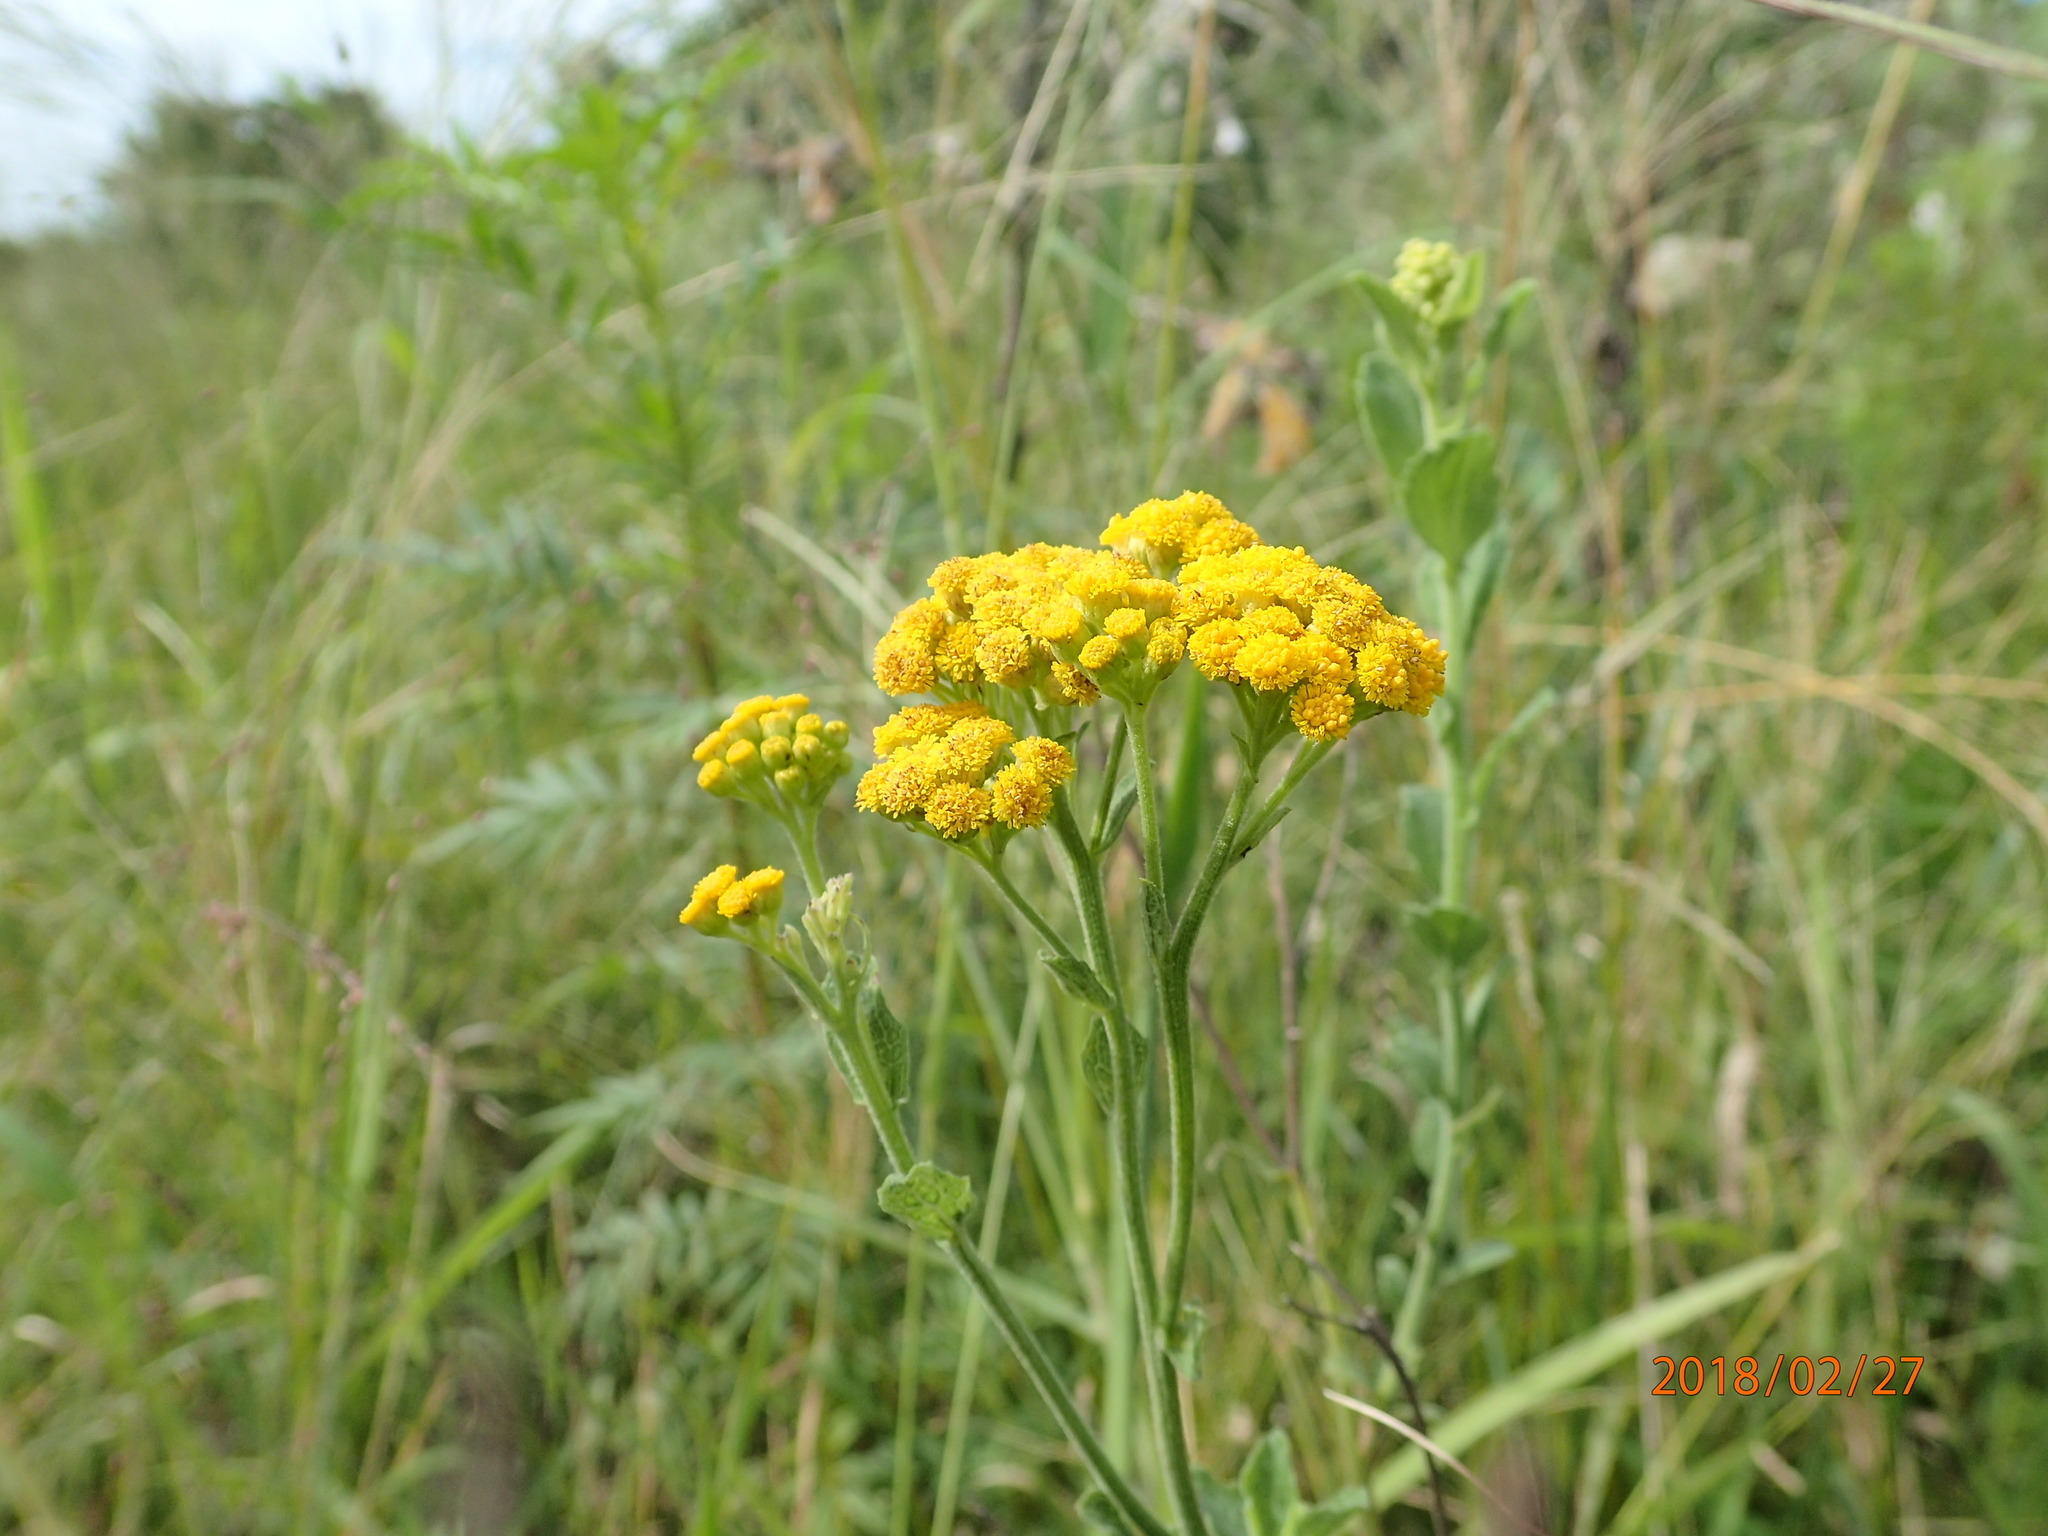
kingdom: Plantae
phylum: Tracheophyta
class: Magnoliopsida
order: Asterales
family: Asteraceae
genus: Nidorella
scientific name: Nidorella auriculata
